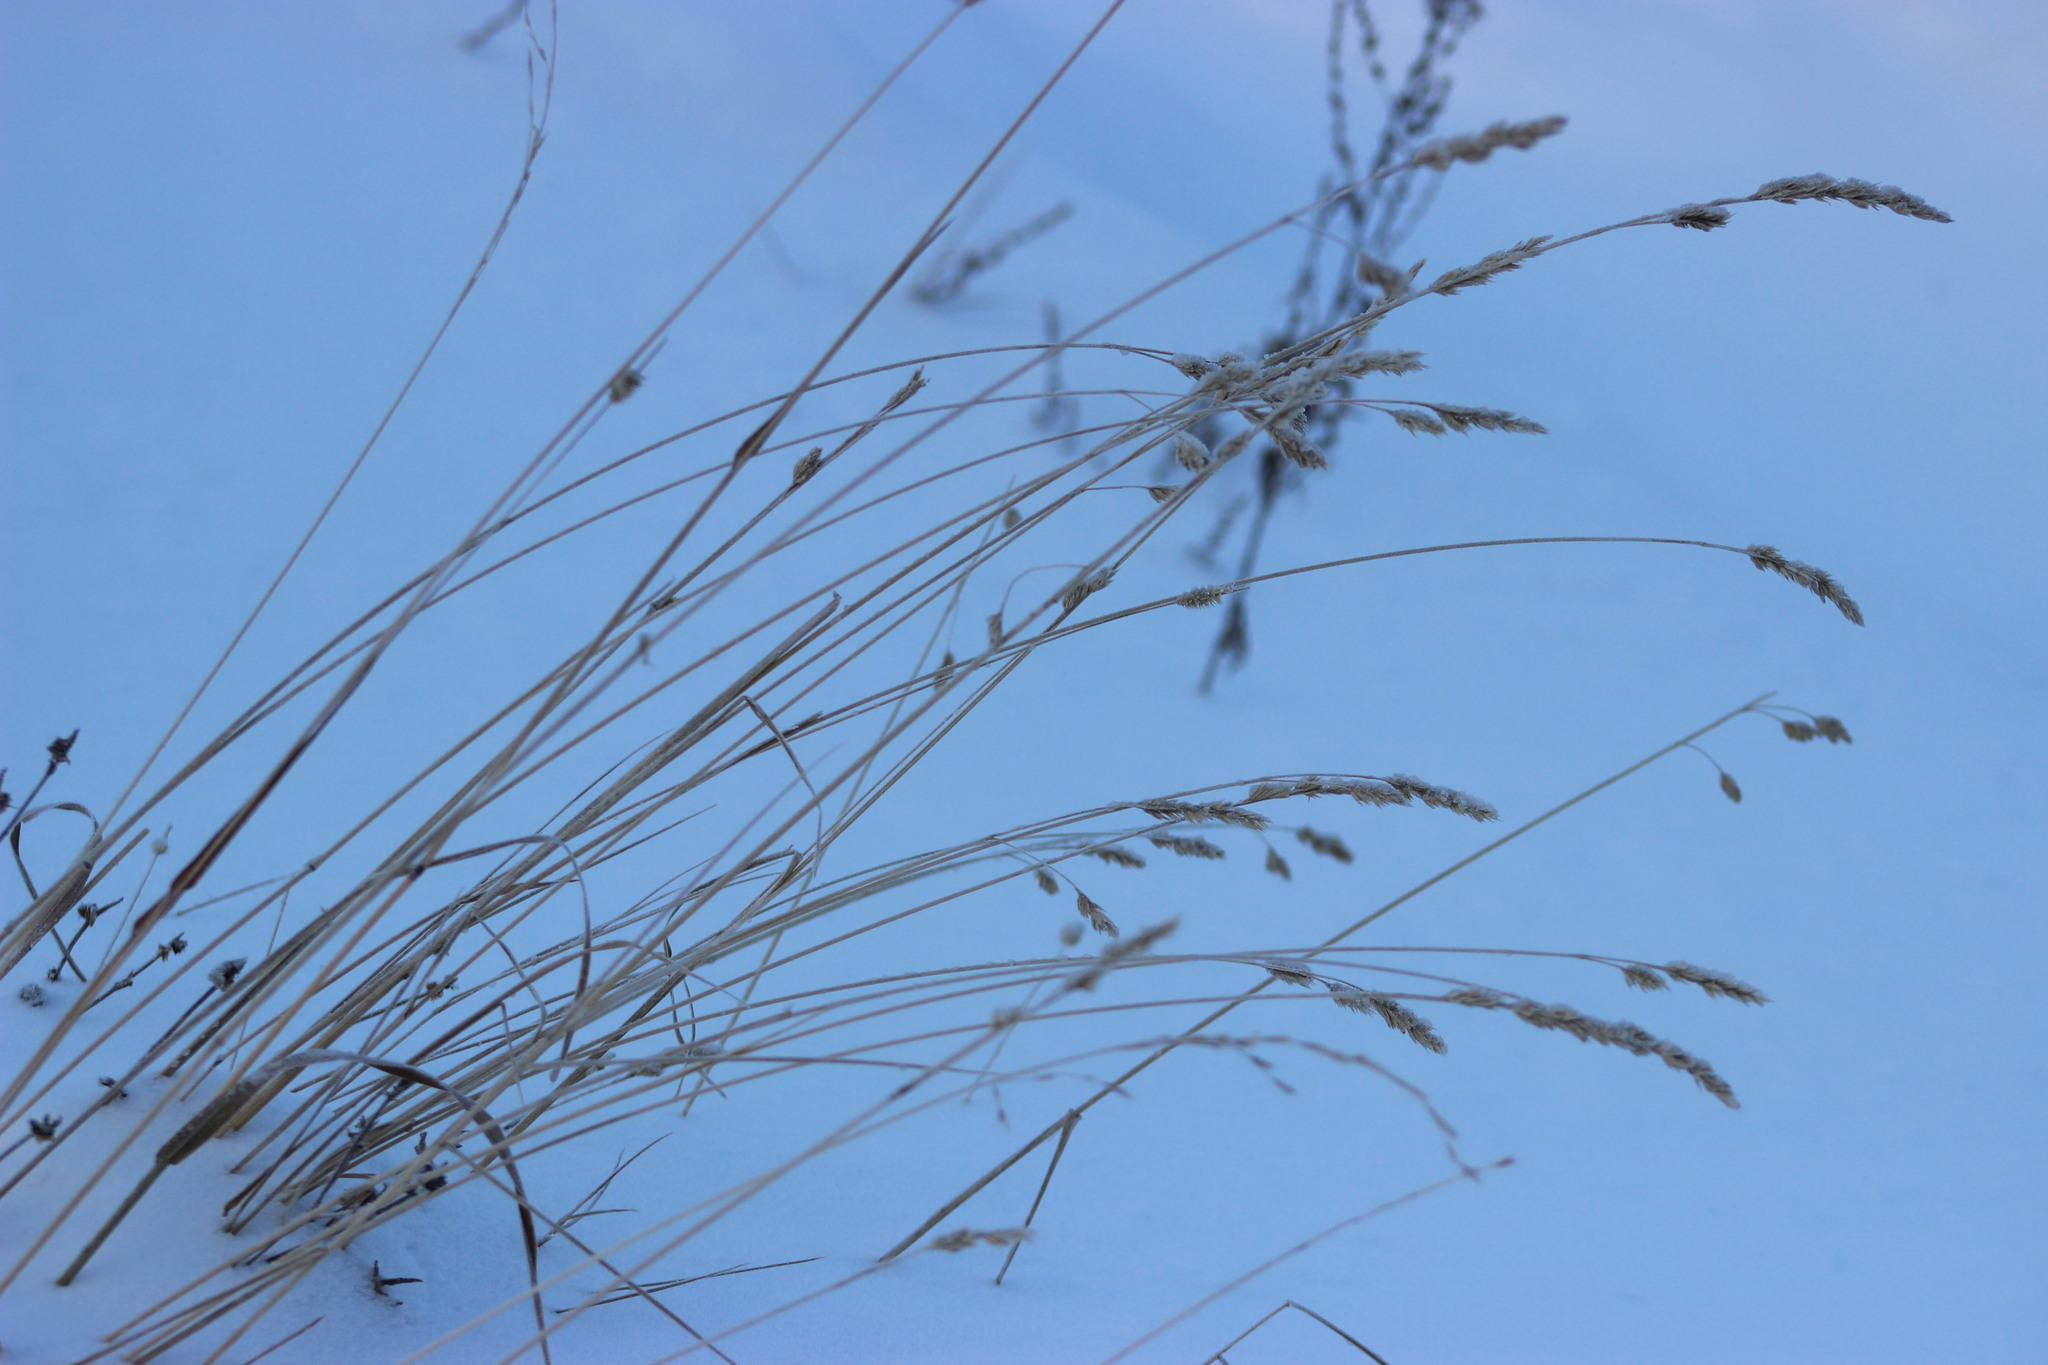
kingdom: Plantae
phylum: Tracheophyta
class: Liliopsida
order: Poales
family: Poaceae
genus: Dactylis
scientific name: Dactylis glomerata
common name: Orchardgrass
